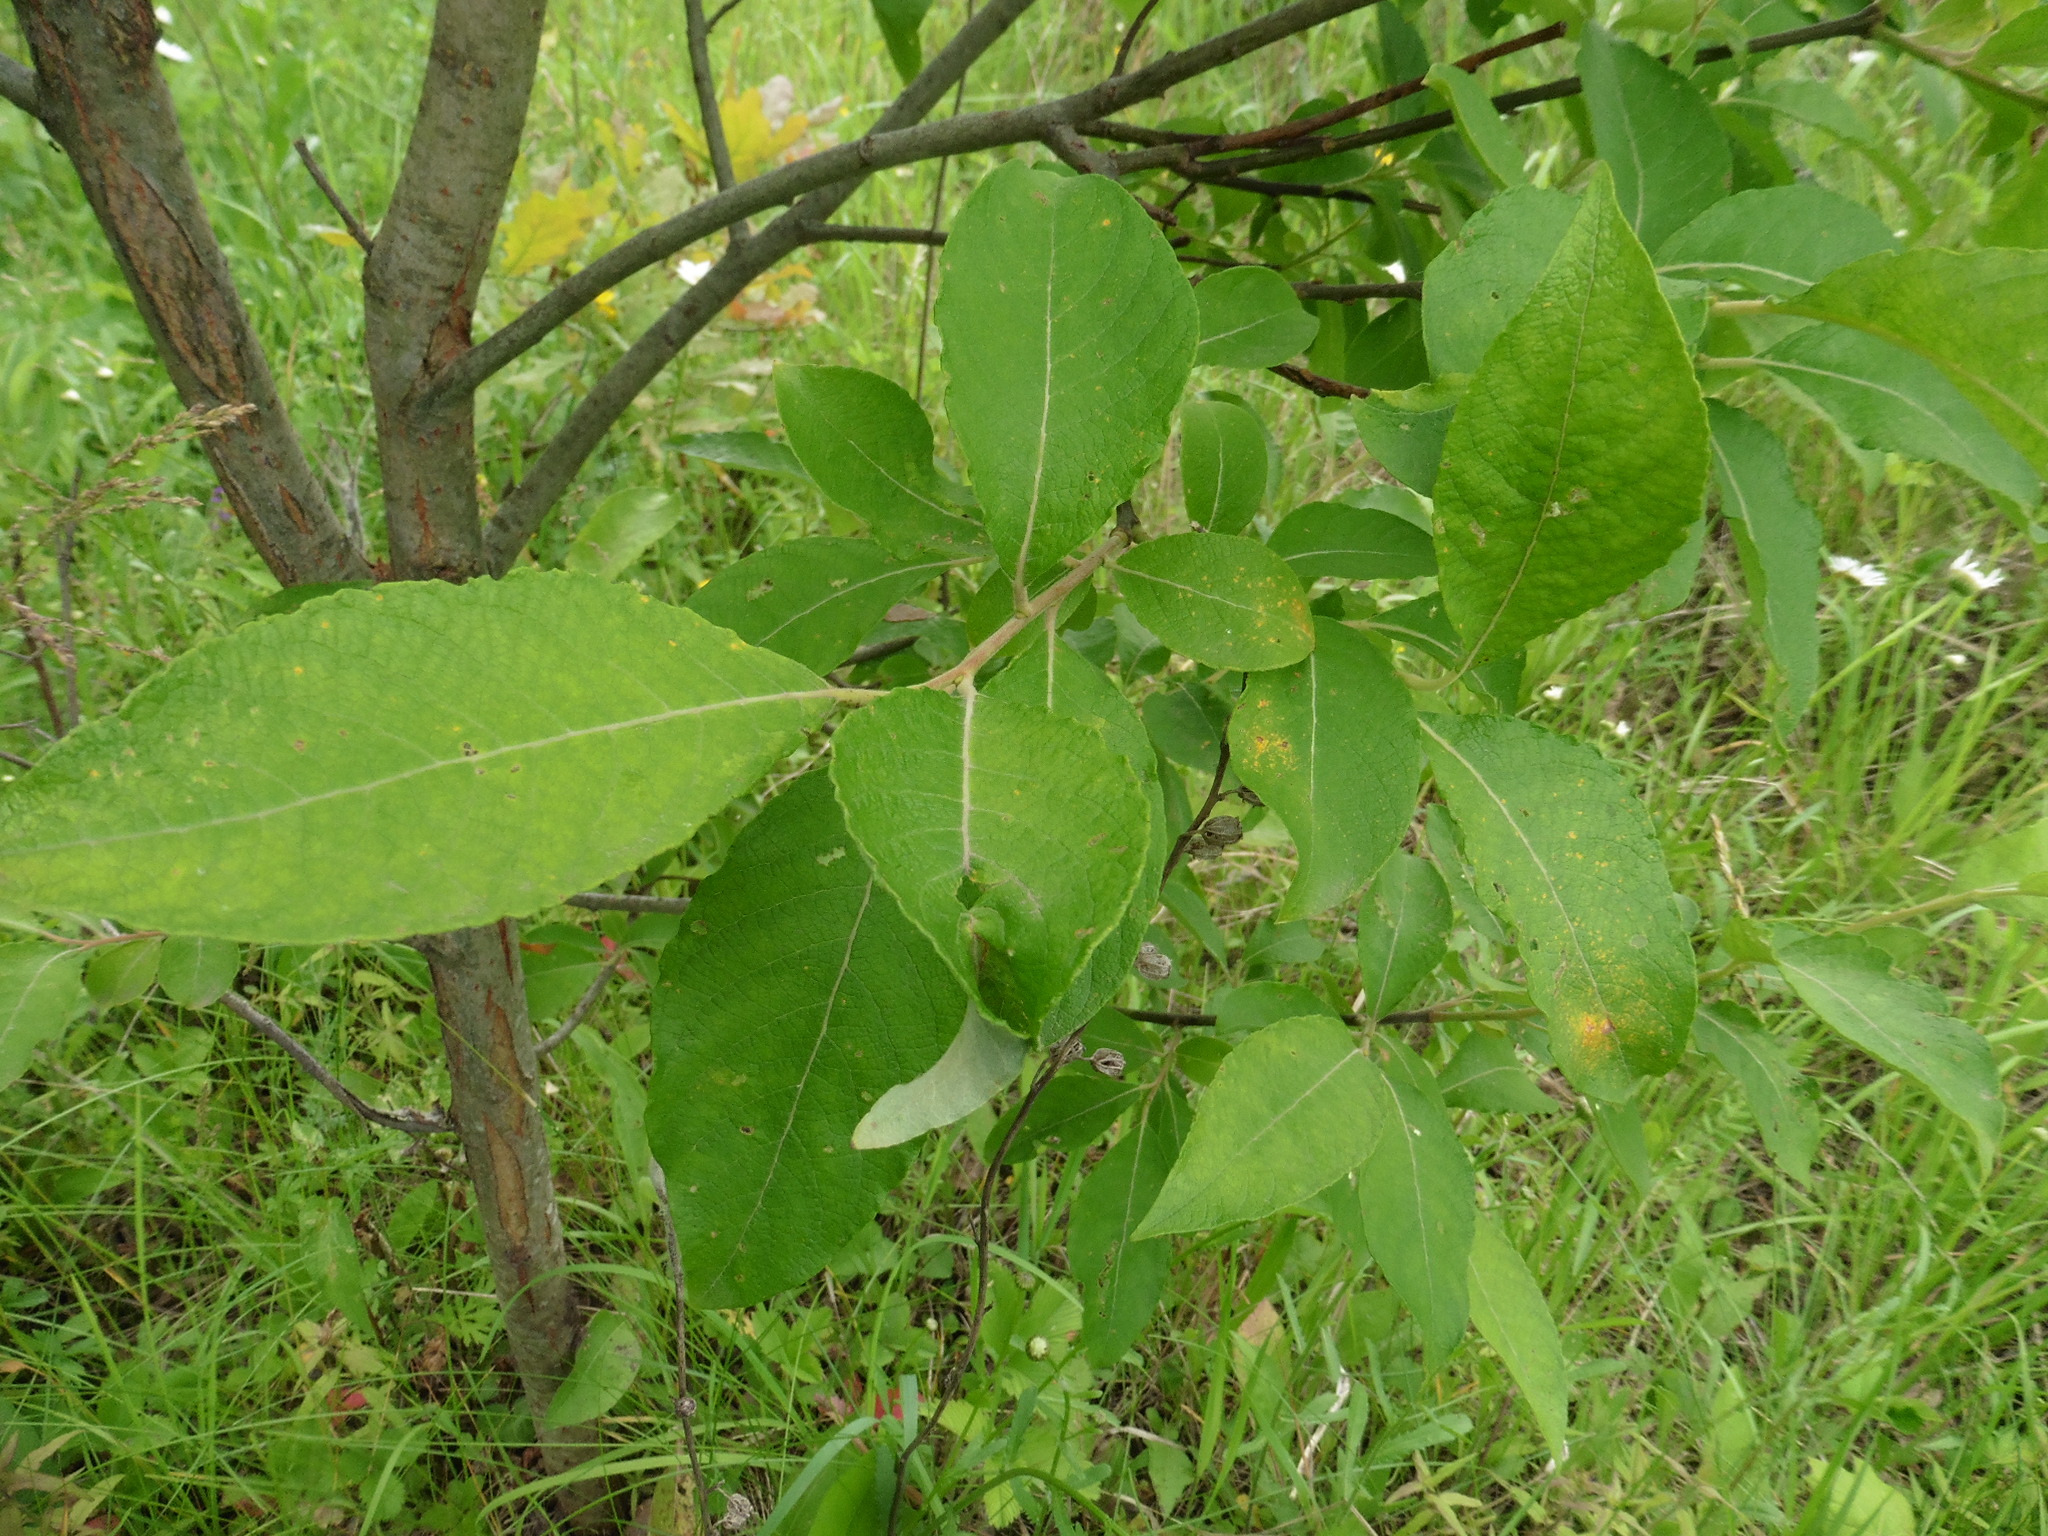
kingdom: Plantae
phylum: Tracheophyta
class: Magnoliopsida
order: Malpighiales
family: Salicaceae
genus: Salix
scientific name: Salix caprea
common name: Goat willow
